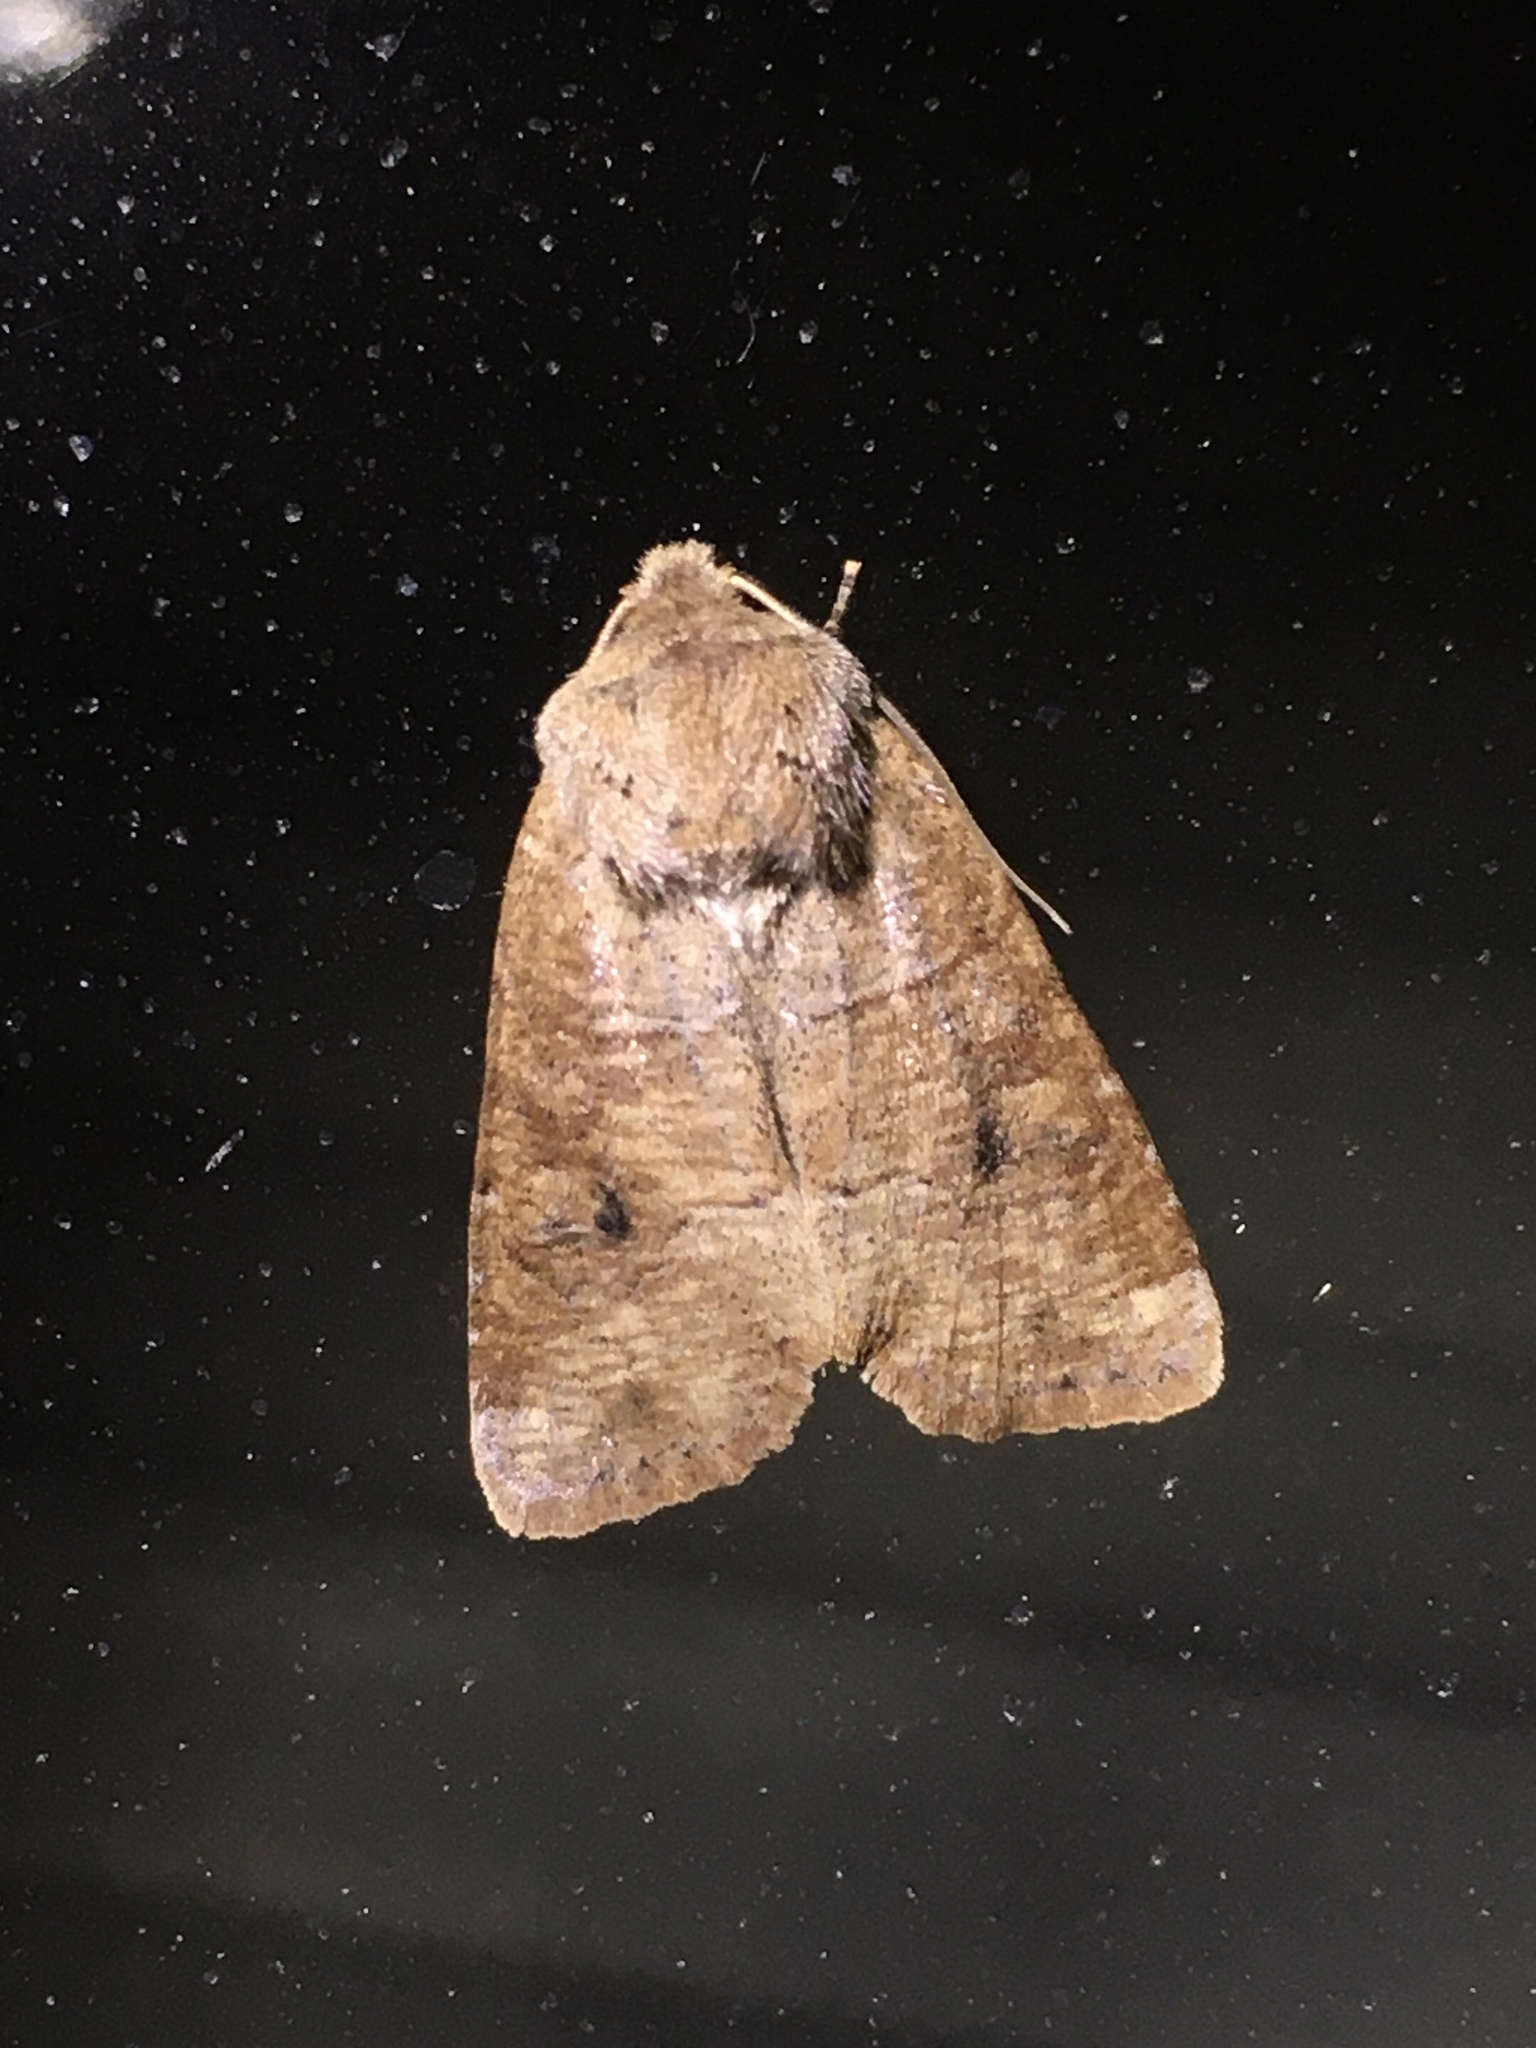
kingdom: Animalia
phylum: Arthropoda
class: Insecta
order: Lepidoptera
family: Noctuidae
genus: Crocigrapha
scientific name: Crocigrapha normani
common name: Norman's quaker
